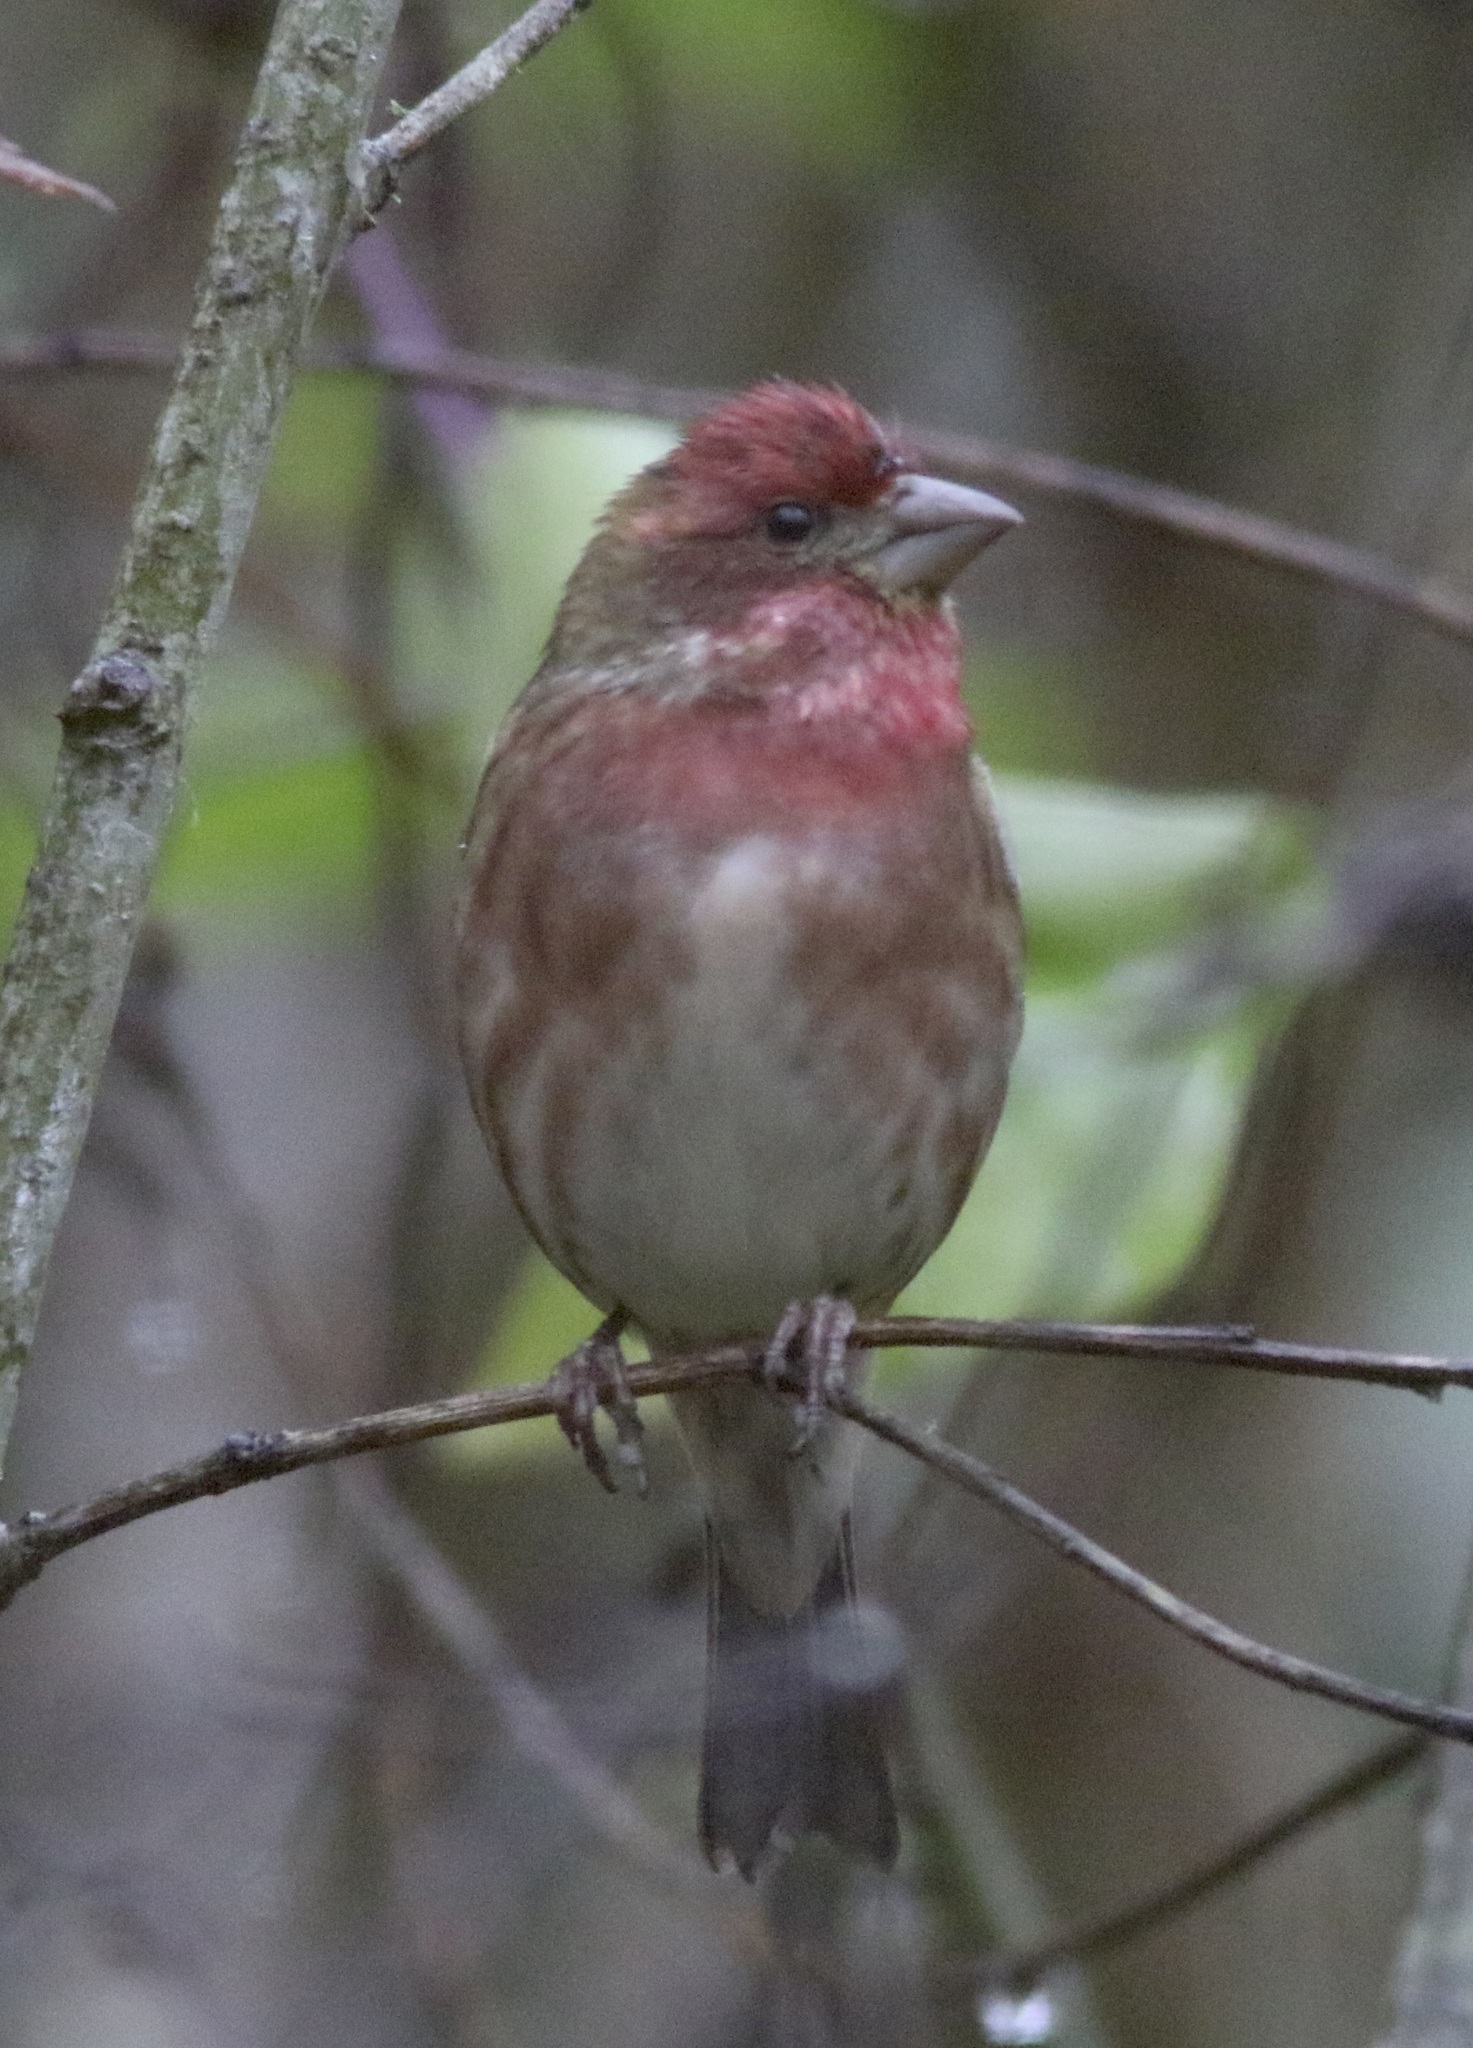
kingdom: Animalia
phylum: Chordata
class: Aves
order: Passeriformes
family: Fringillidae
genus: Haemorhous
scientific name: Haemorhous purpureus
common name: Purple finch
